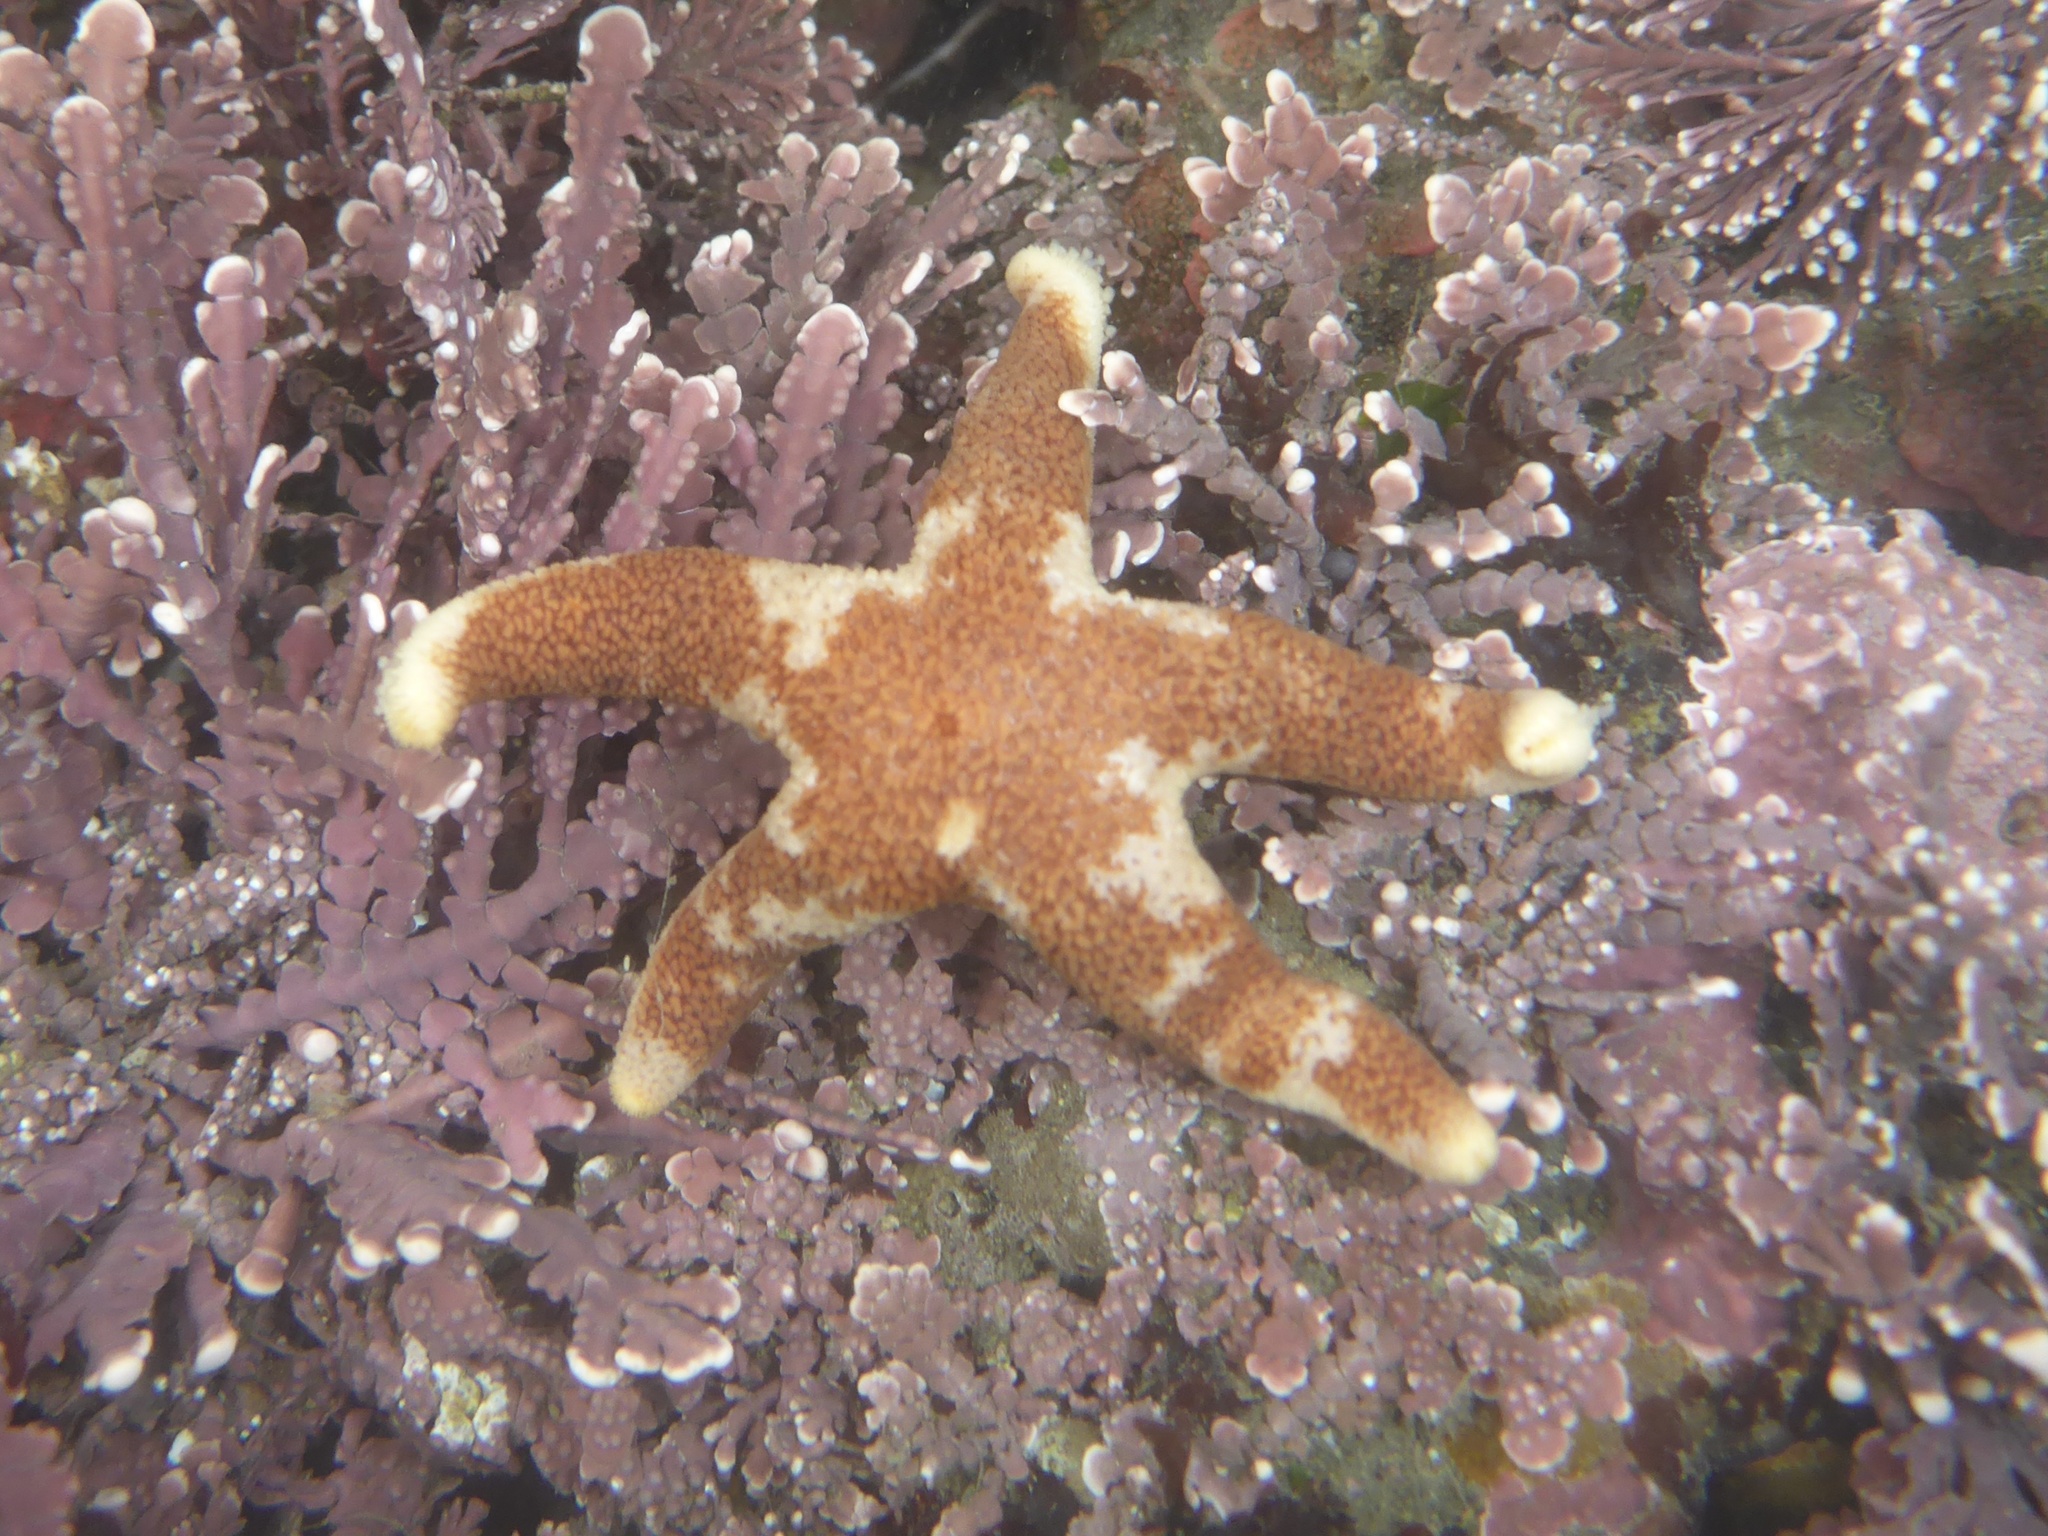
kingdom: Animalia
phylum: Echinodermata
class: Asteroidea
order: Spinulosida
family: Echinasteridae
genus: Henricia
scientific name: Henricia pumila
